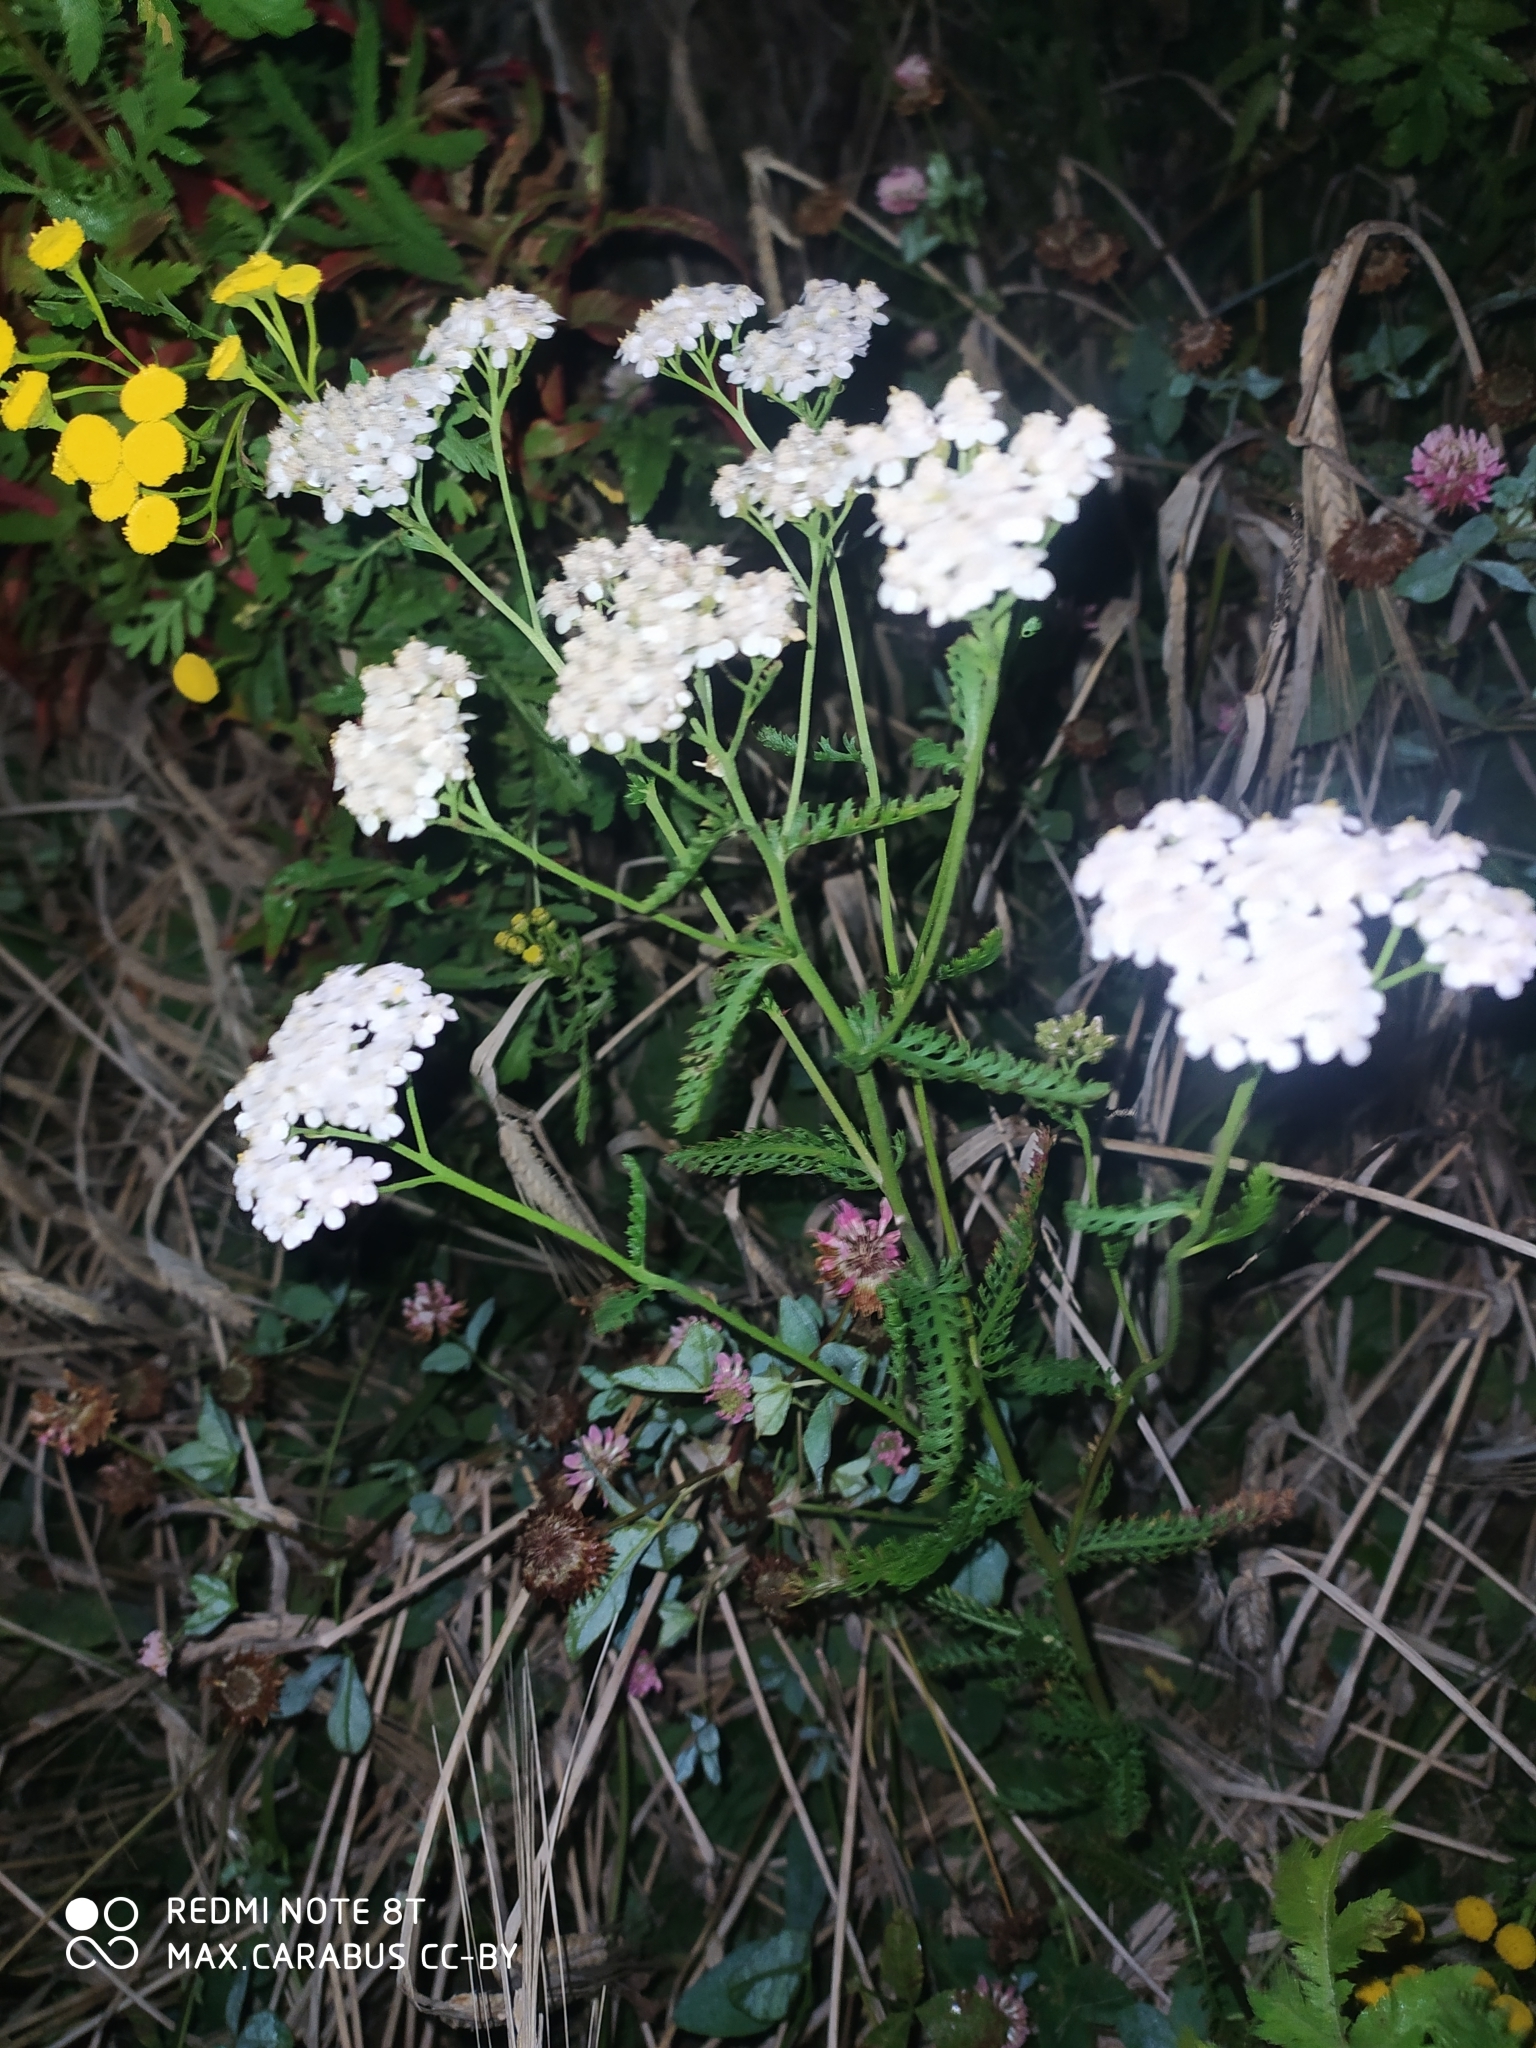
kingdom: Plantae
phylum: Tracheophyta
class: Magnoliopsida
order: Asterales
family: Asteraceae
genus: Achillea
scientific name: Achillea millefolium
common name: Yarrow
